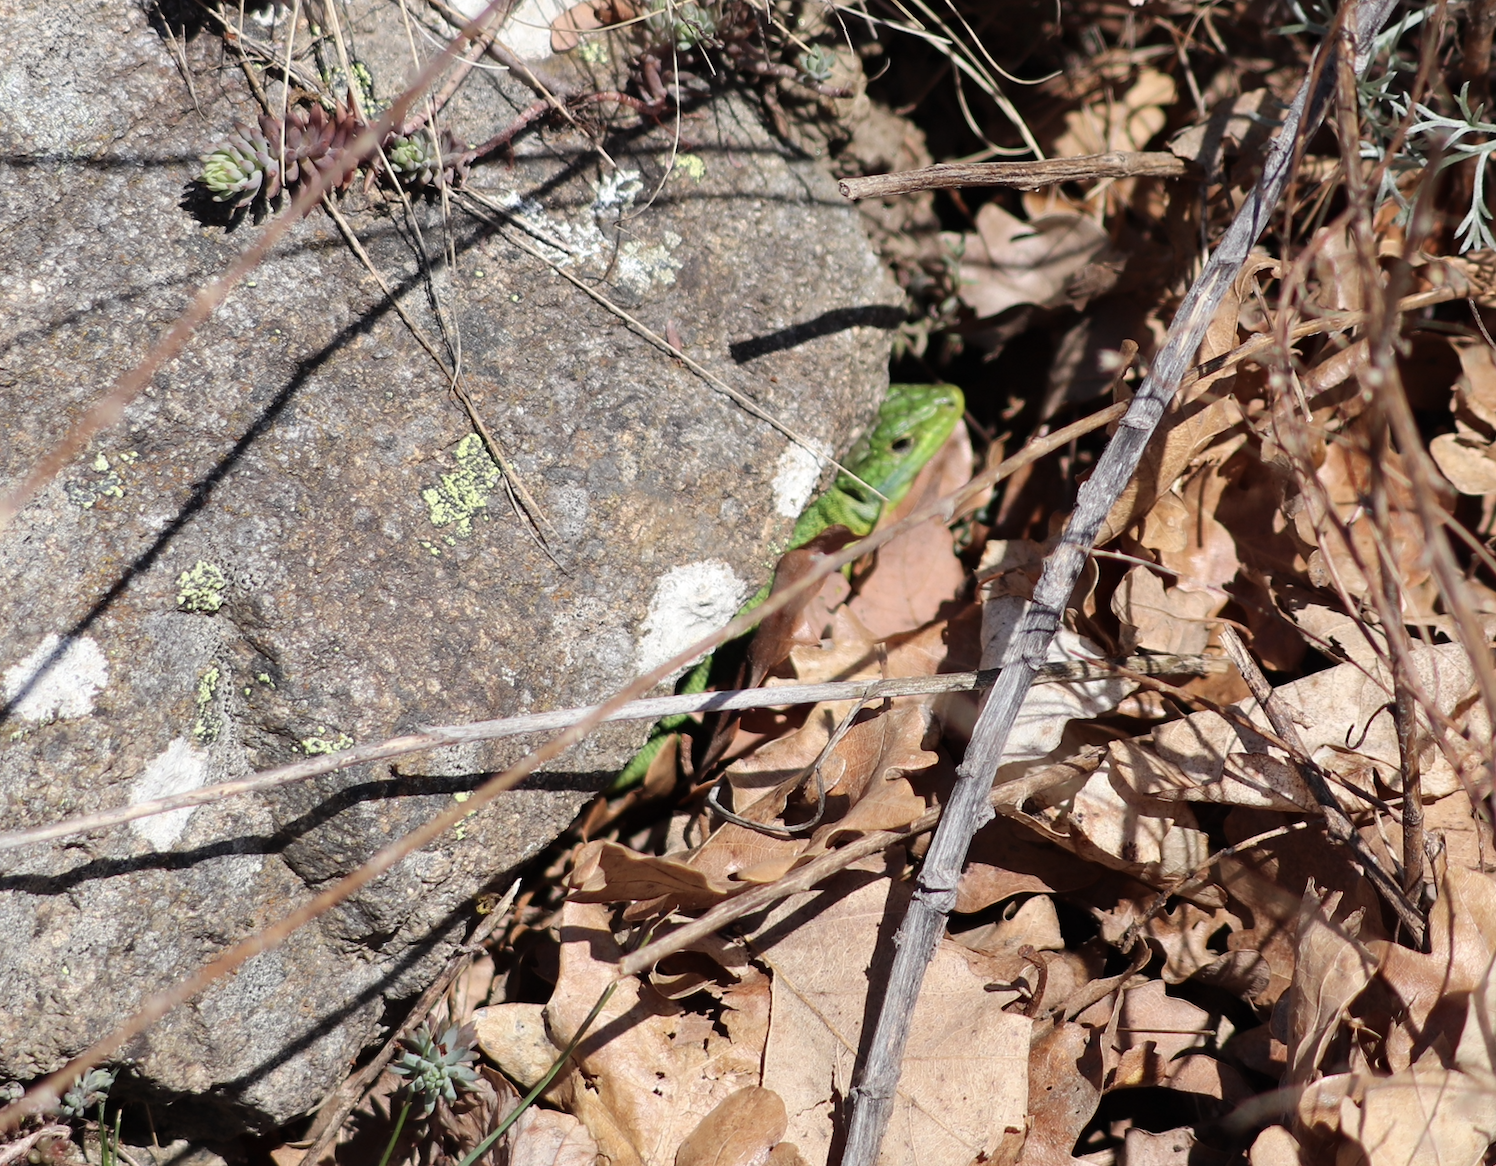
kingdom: Animalia
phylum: Chordata
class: Squamata
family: Lacertidae
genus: Lacerta
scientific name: Lacerta bilineata
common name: Western green lizard
